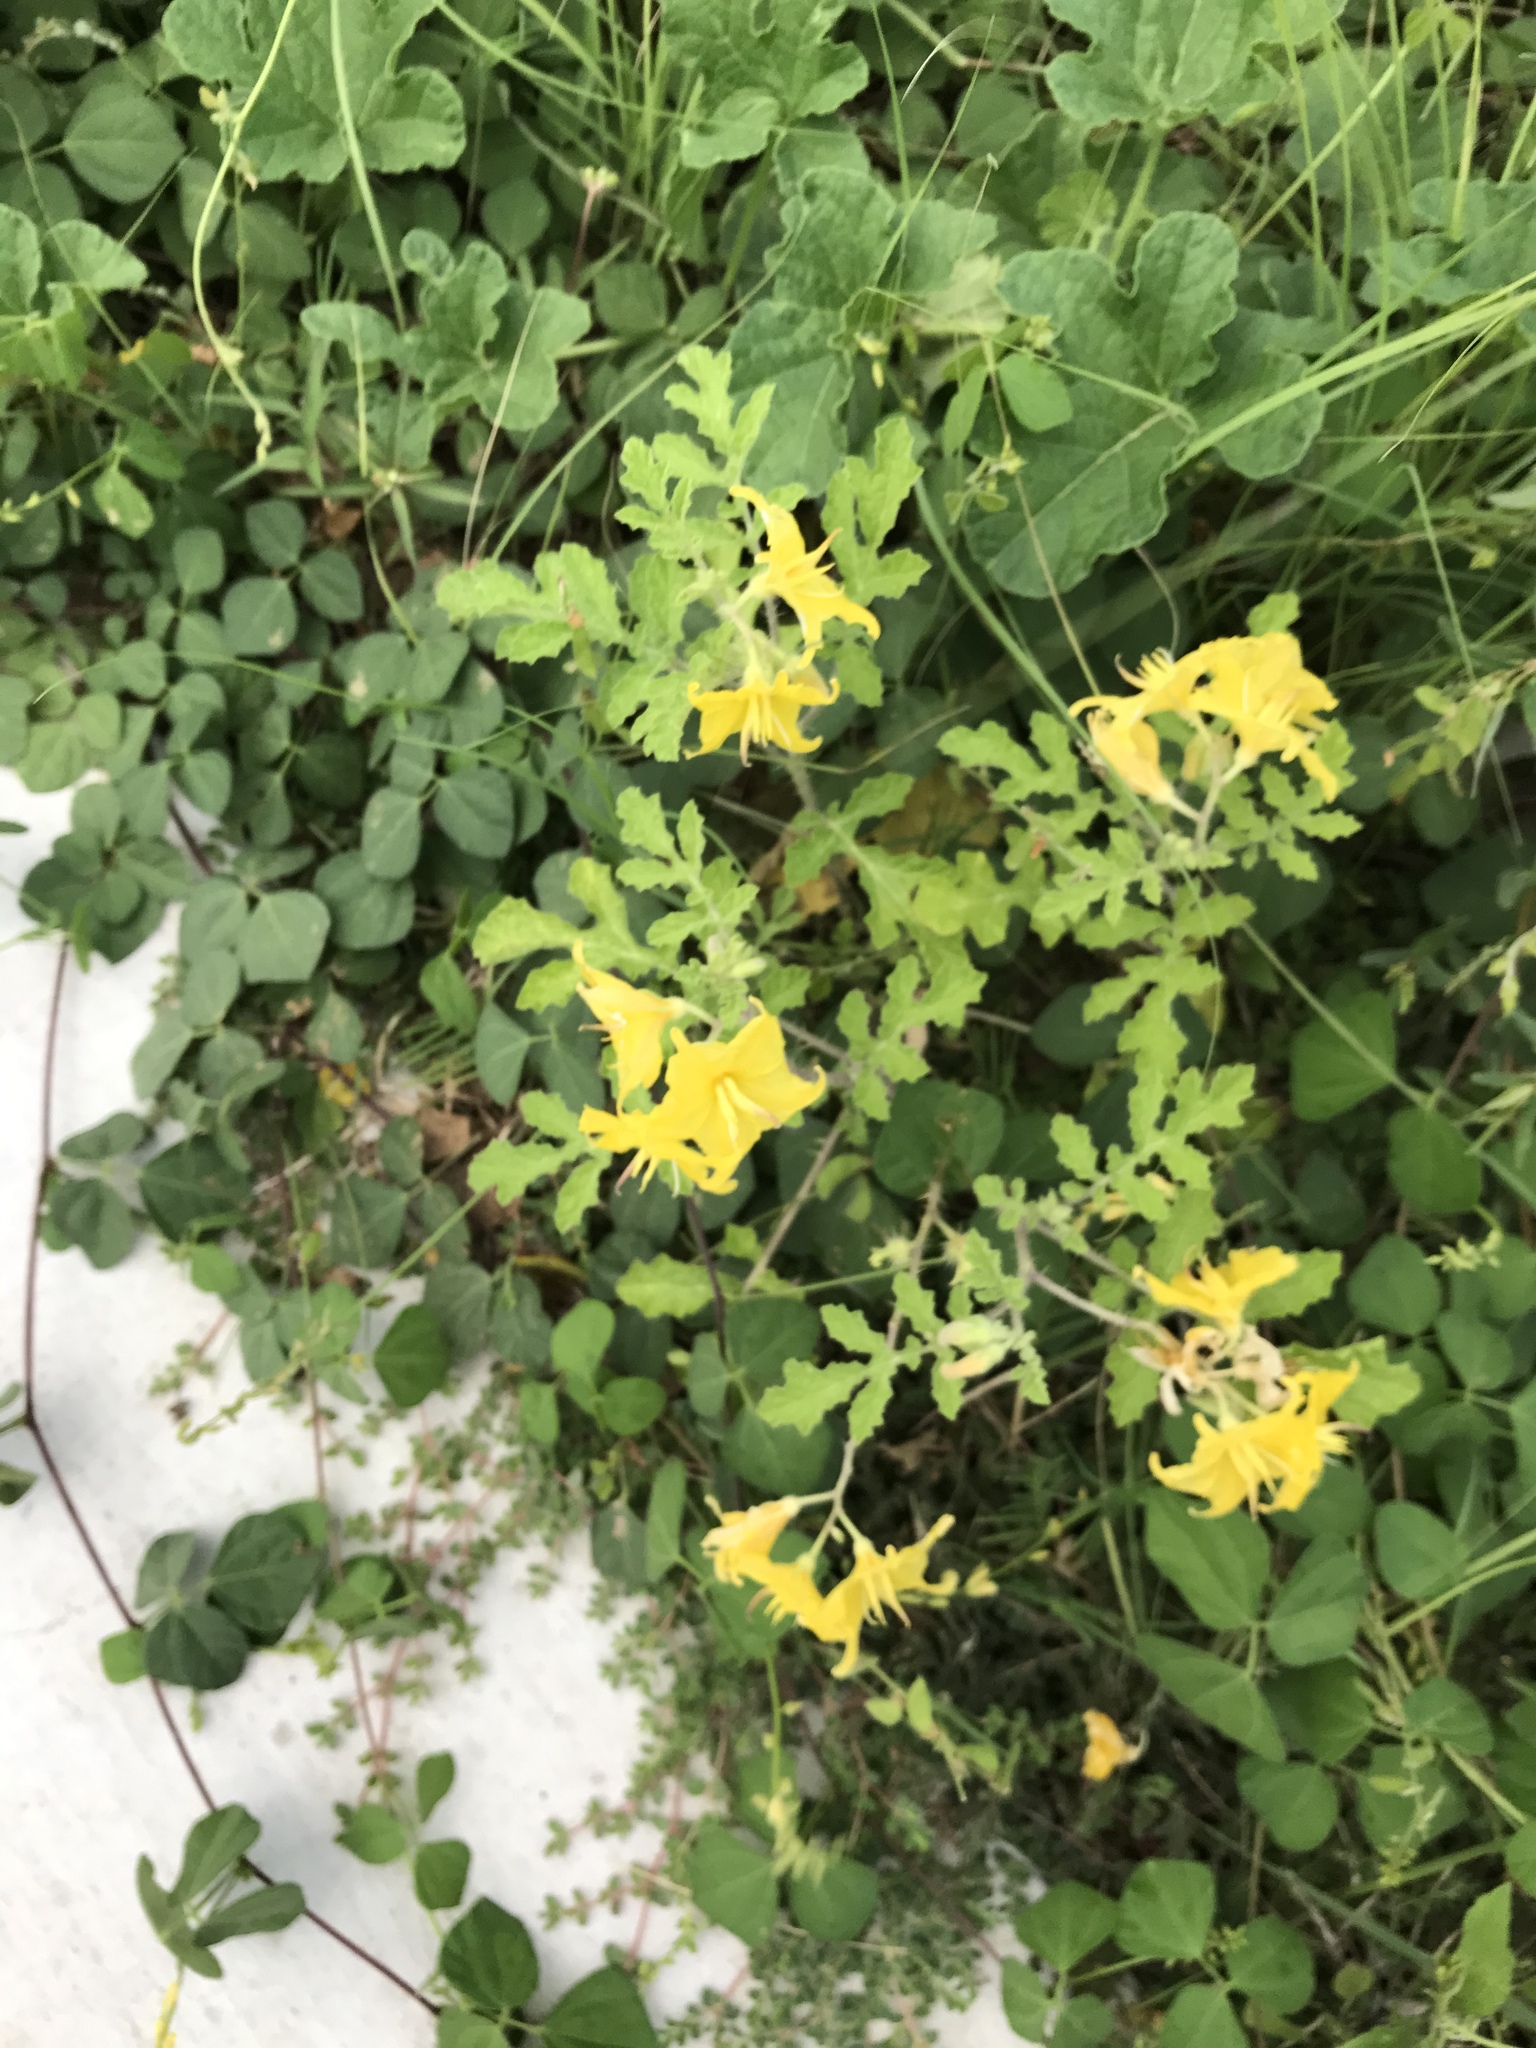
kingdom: Plantae
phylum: Tracheophyta
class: Magnoliopsida
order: Solanales
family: Solanaceae
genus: Solanum
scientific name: Solanum angustifolium
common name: Buffalobur nightshade
